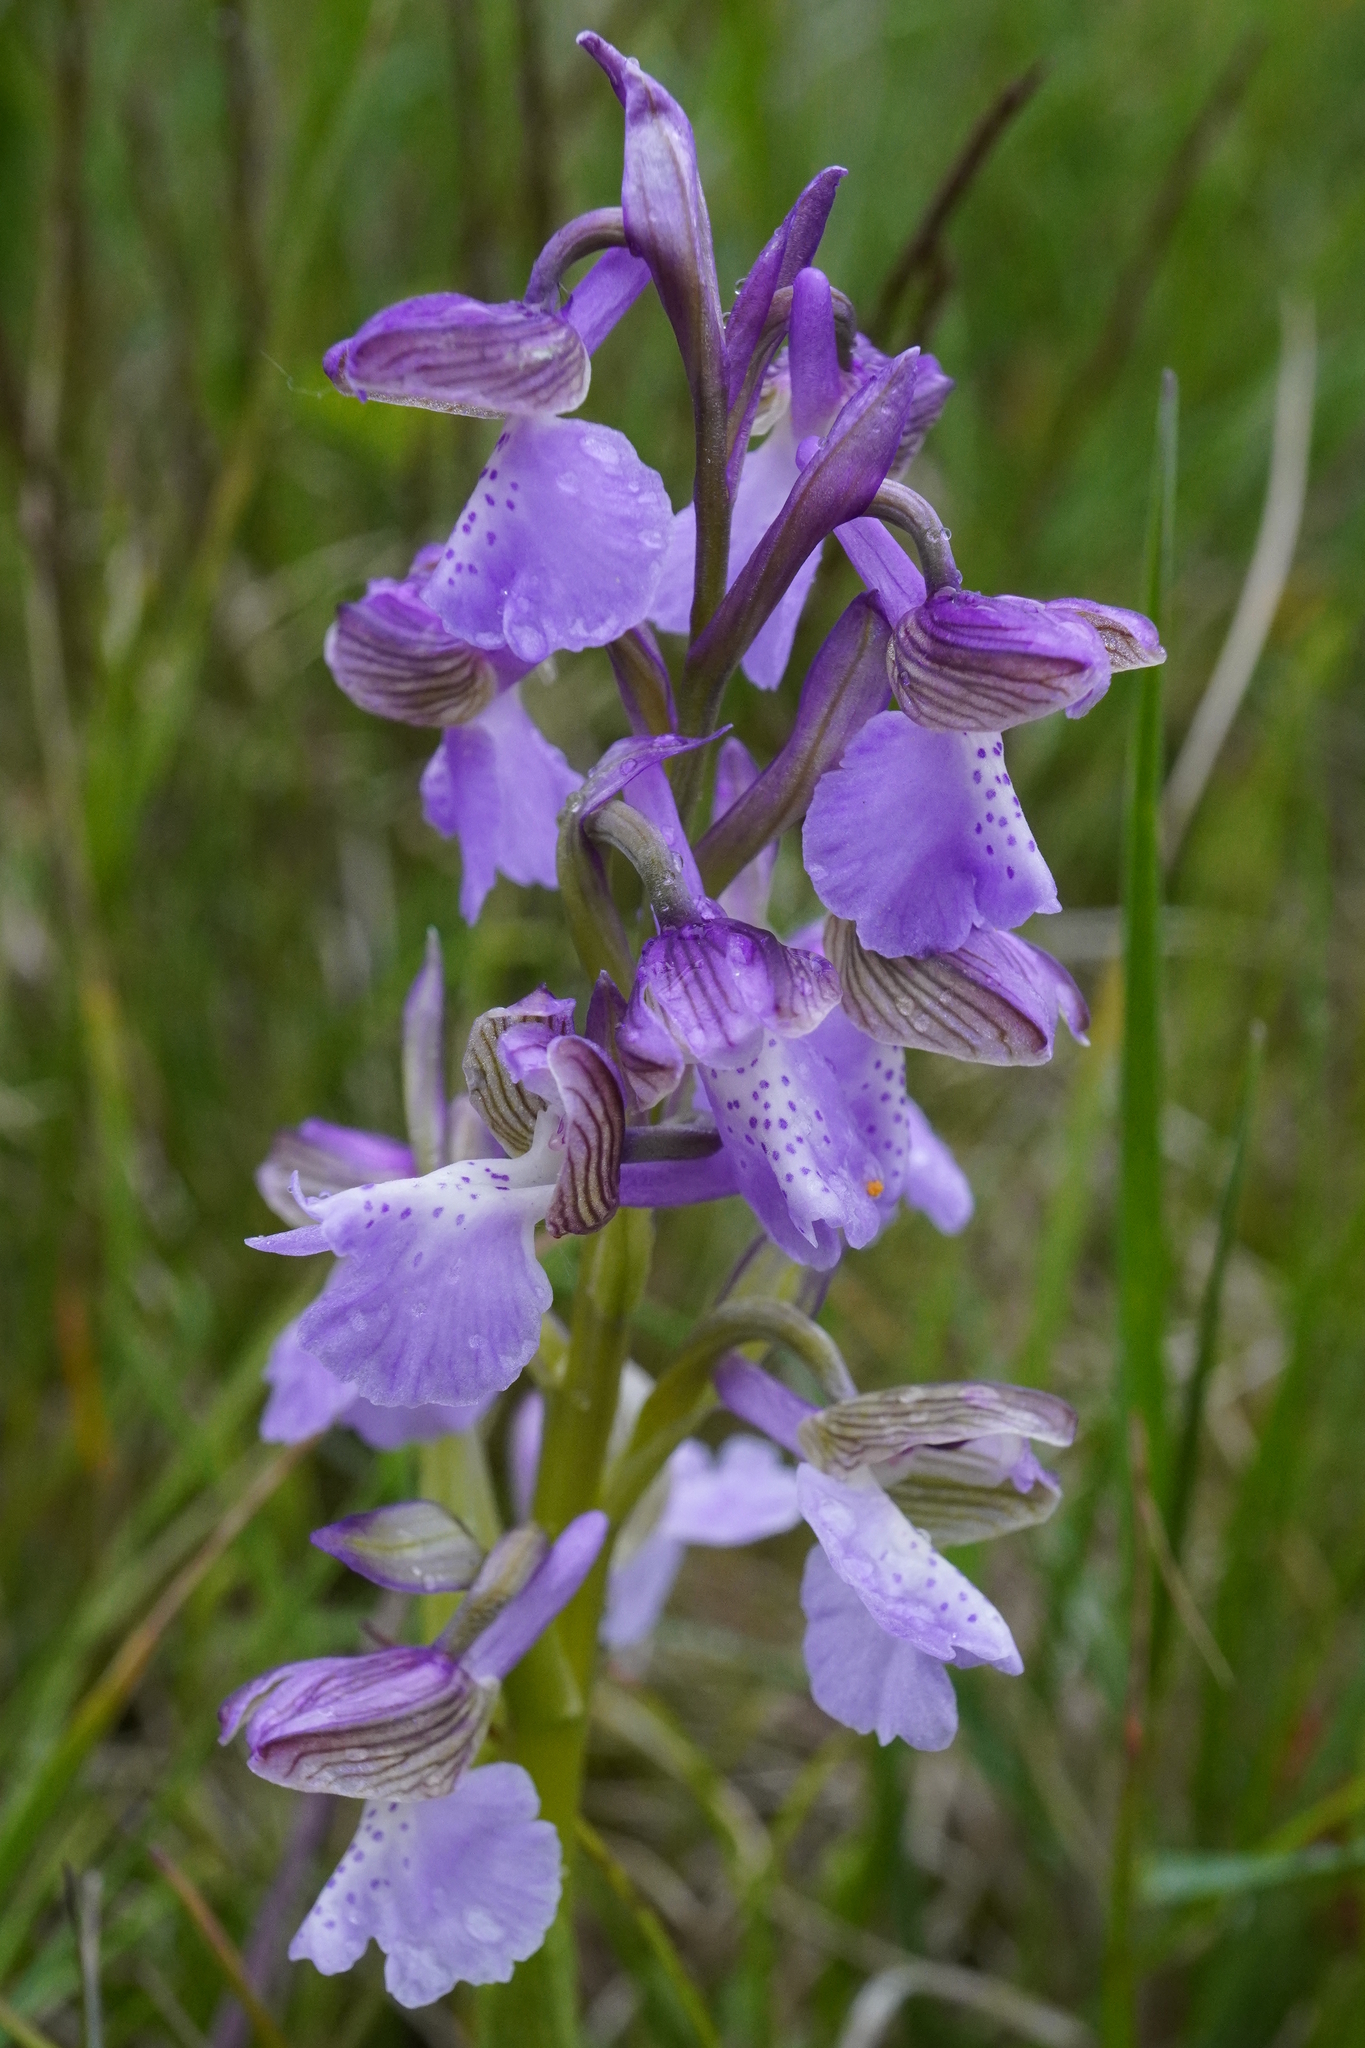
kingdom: Plantae
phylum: Tracheophyta
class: Liliopsida
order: Asparagales
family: Orchidaceae
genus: Anacamptis
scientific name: Anacamptis morio
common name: Green-winged orchid
